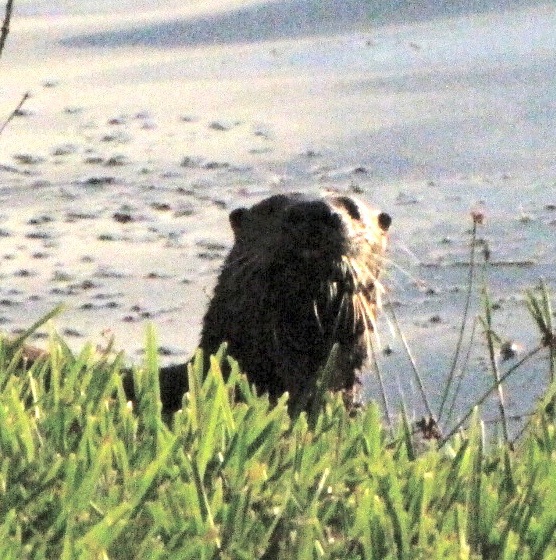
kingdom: Animalia
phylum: Chordata
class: Mammalia
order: Carnivora
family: Mustelidae
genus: Lontra
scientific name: Lontra canadensis
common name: North american river otter
